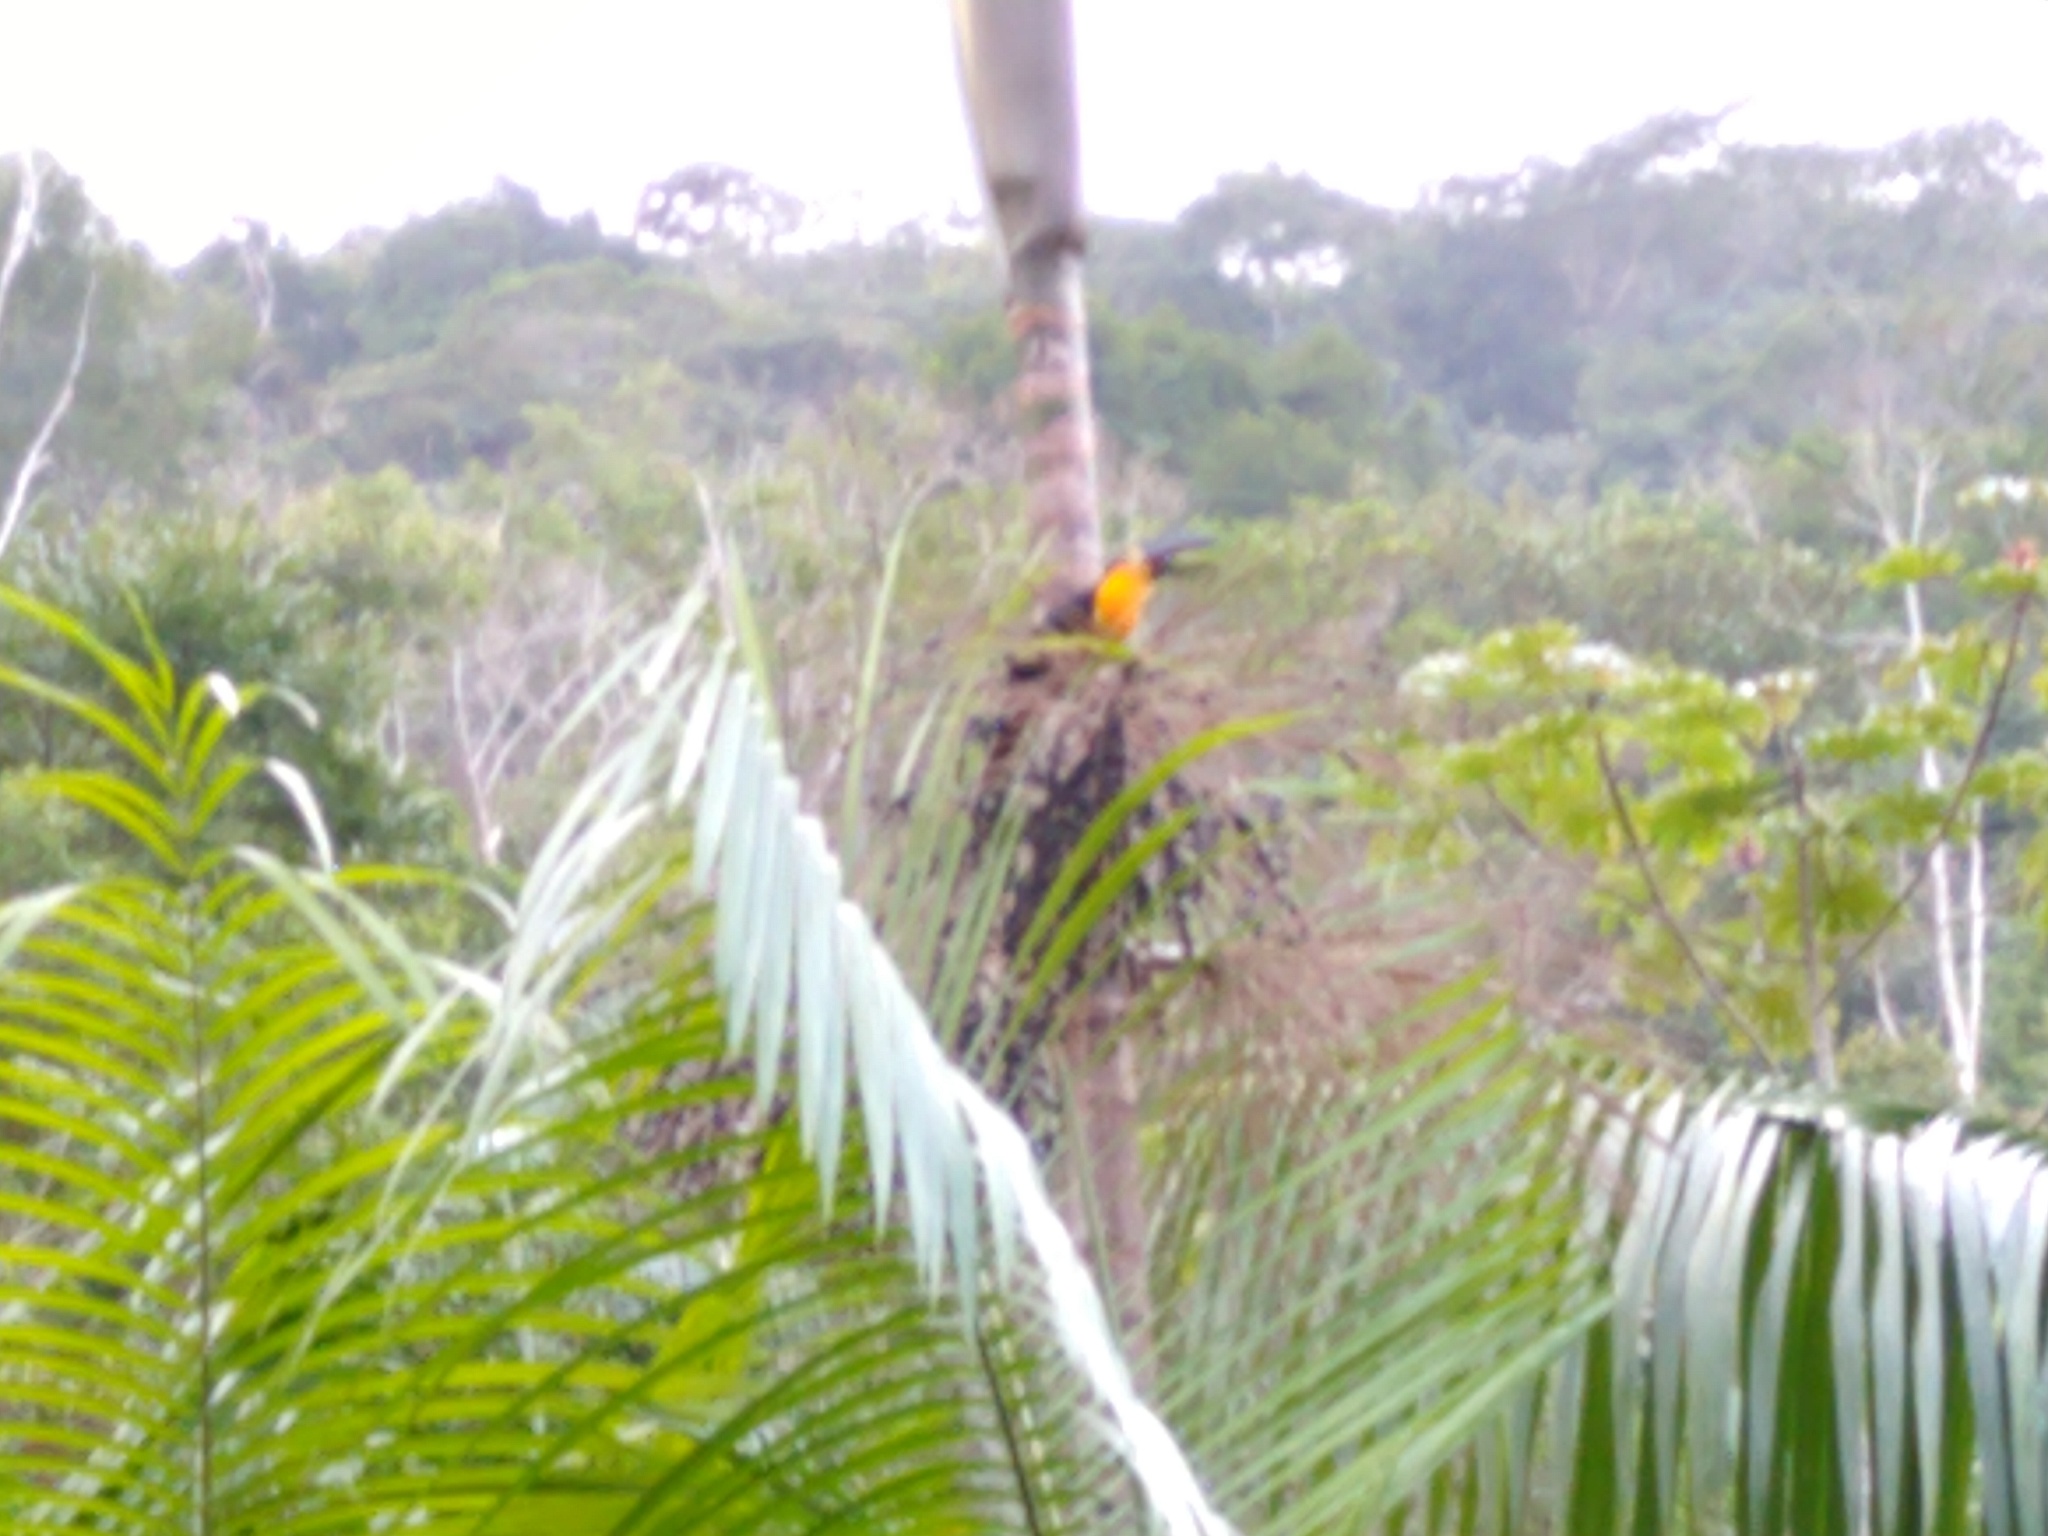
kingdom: Animalia
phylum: Chordata
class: Aves
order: Piciformes
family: Ramphastidae
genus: Ramphastos
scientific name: Ramphastos vitellinus
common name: Channel-billed toucan
